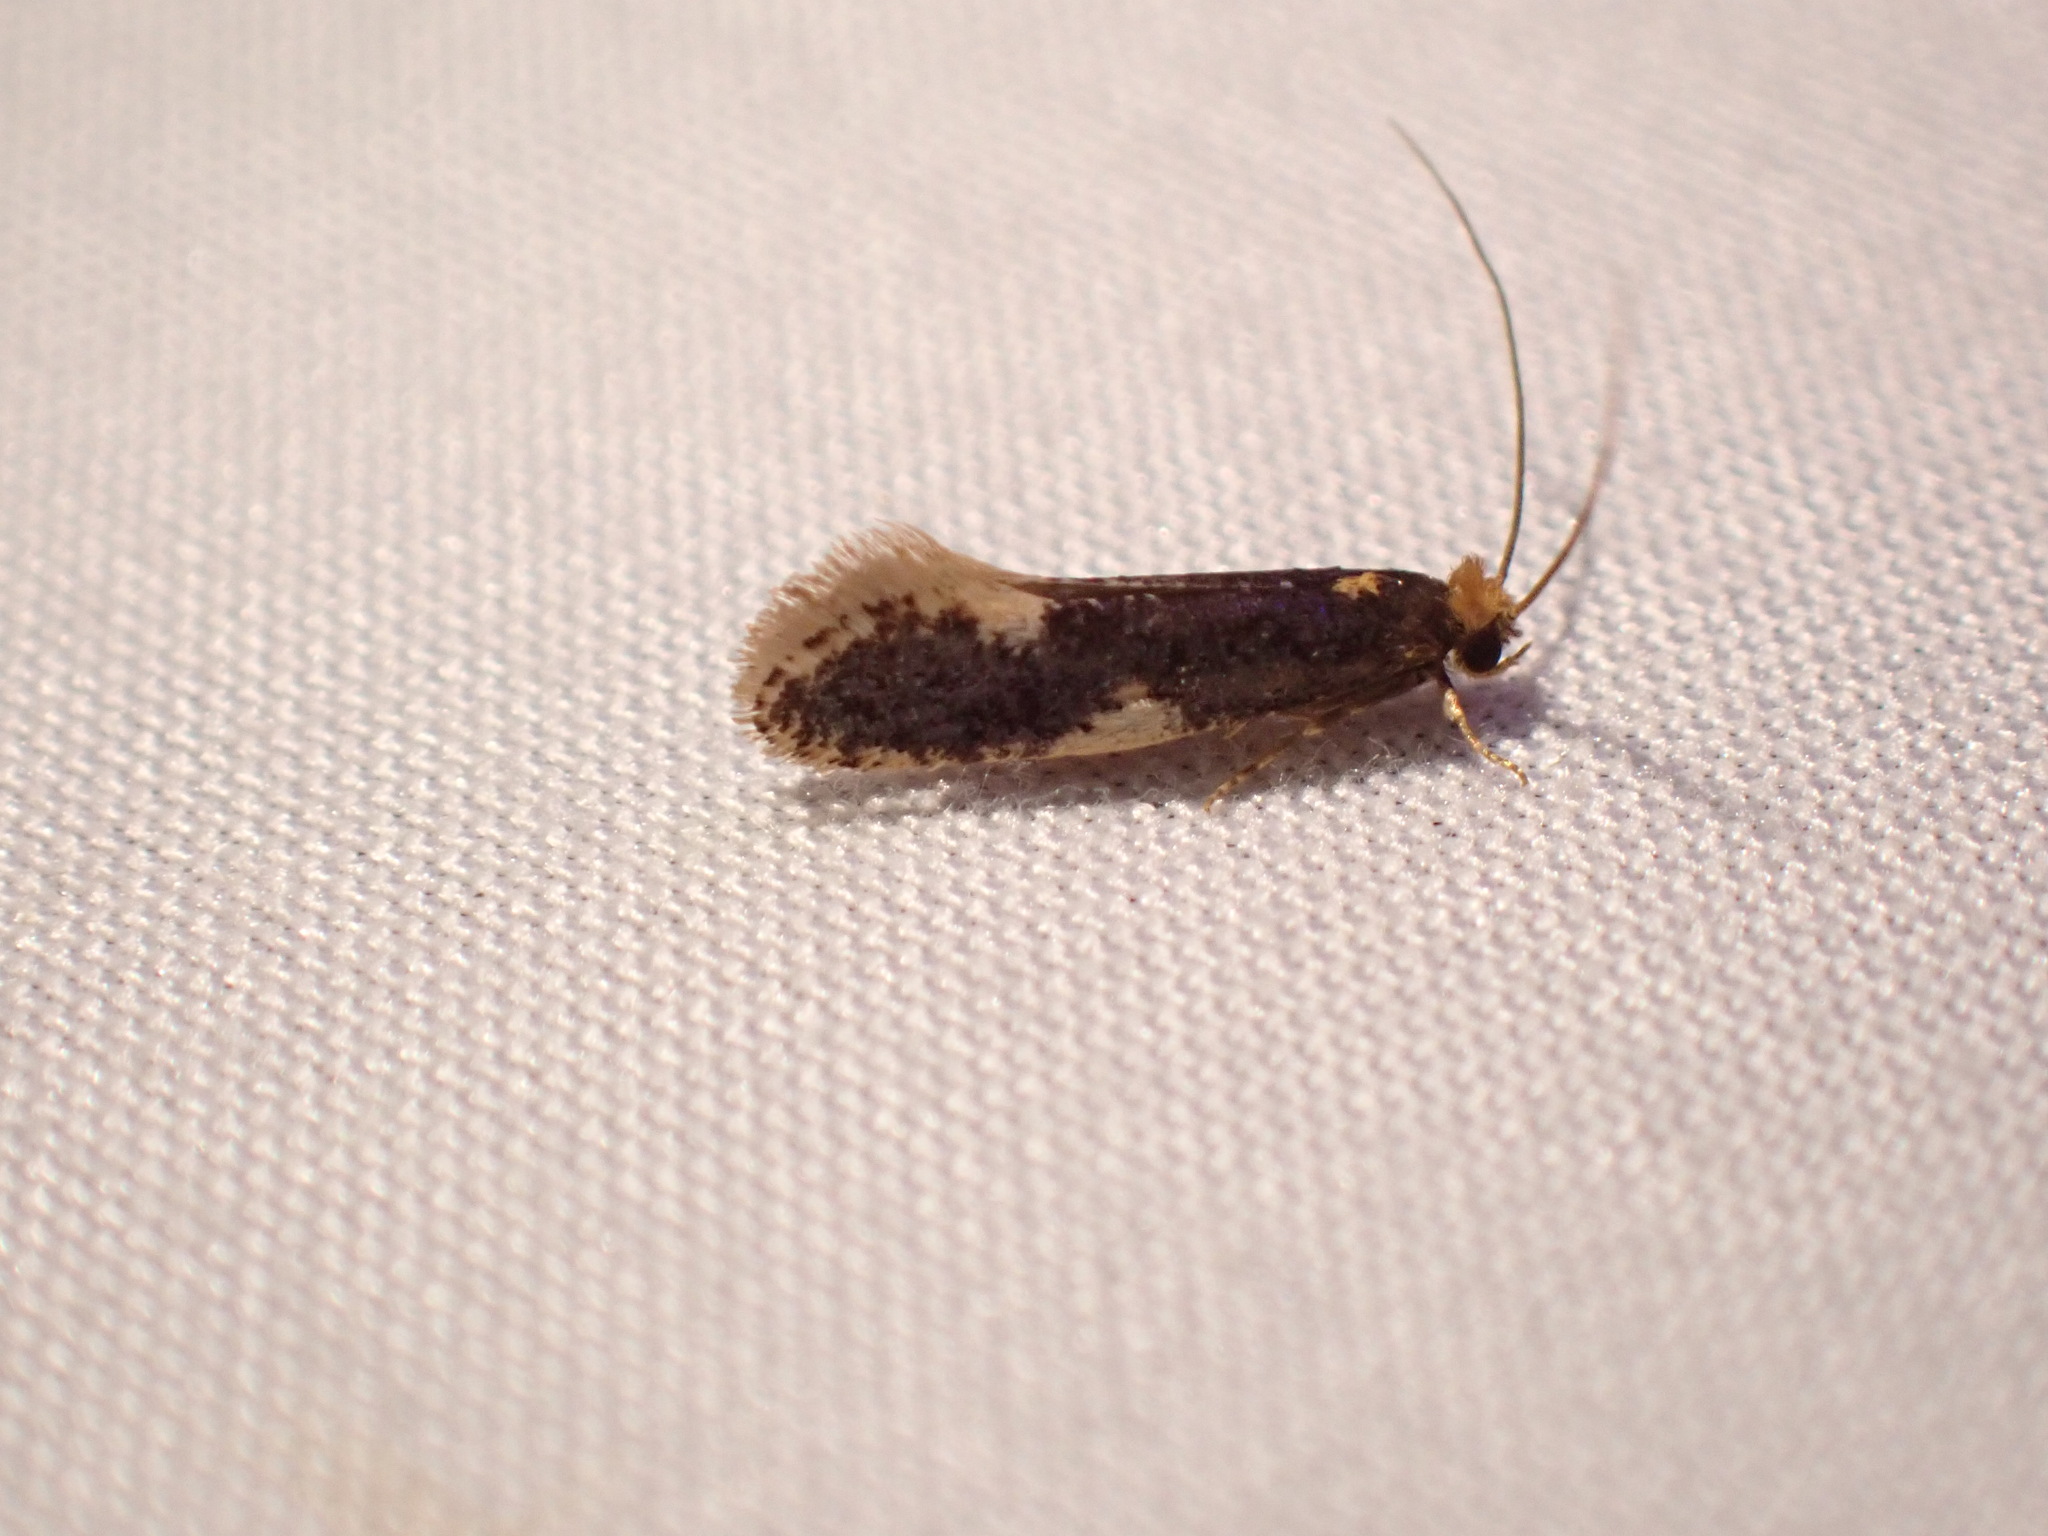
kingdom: Animalia
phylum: Arthropoda
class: Insecta
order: Lepidoptera
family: Tineidae
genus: Monopis
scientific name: Monopis spilotella
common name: Orange-headed monopis
